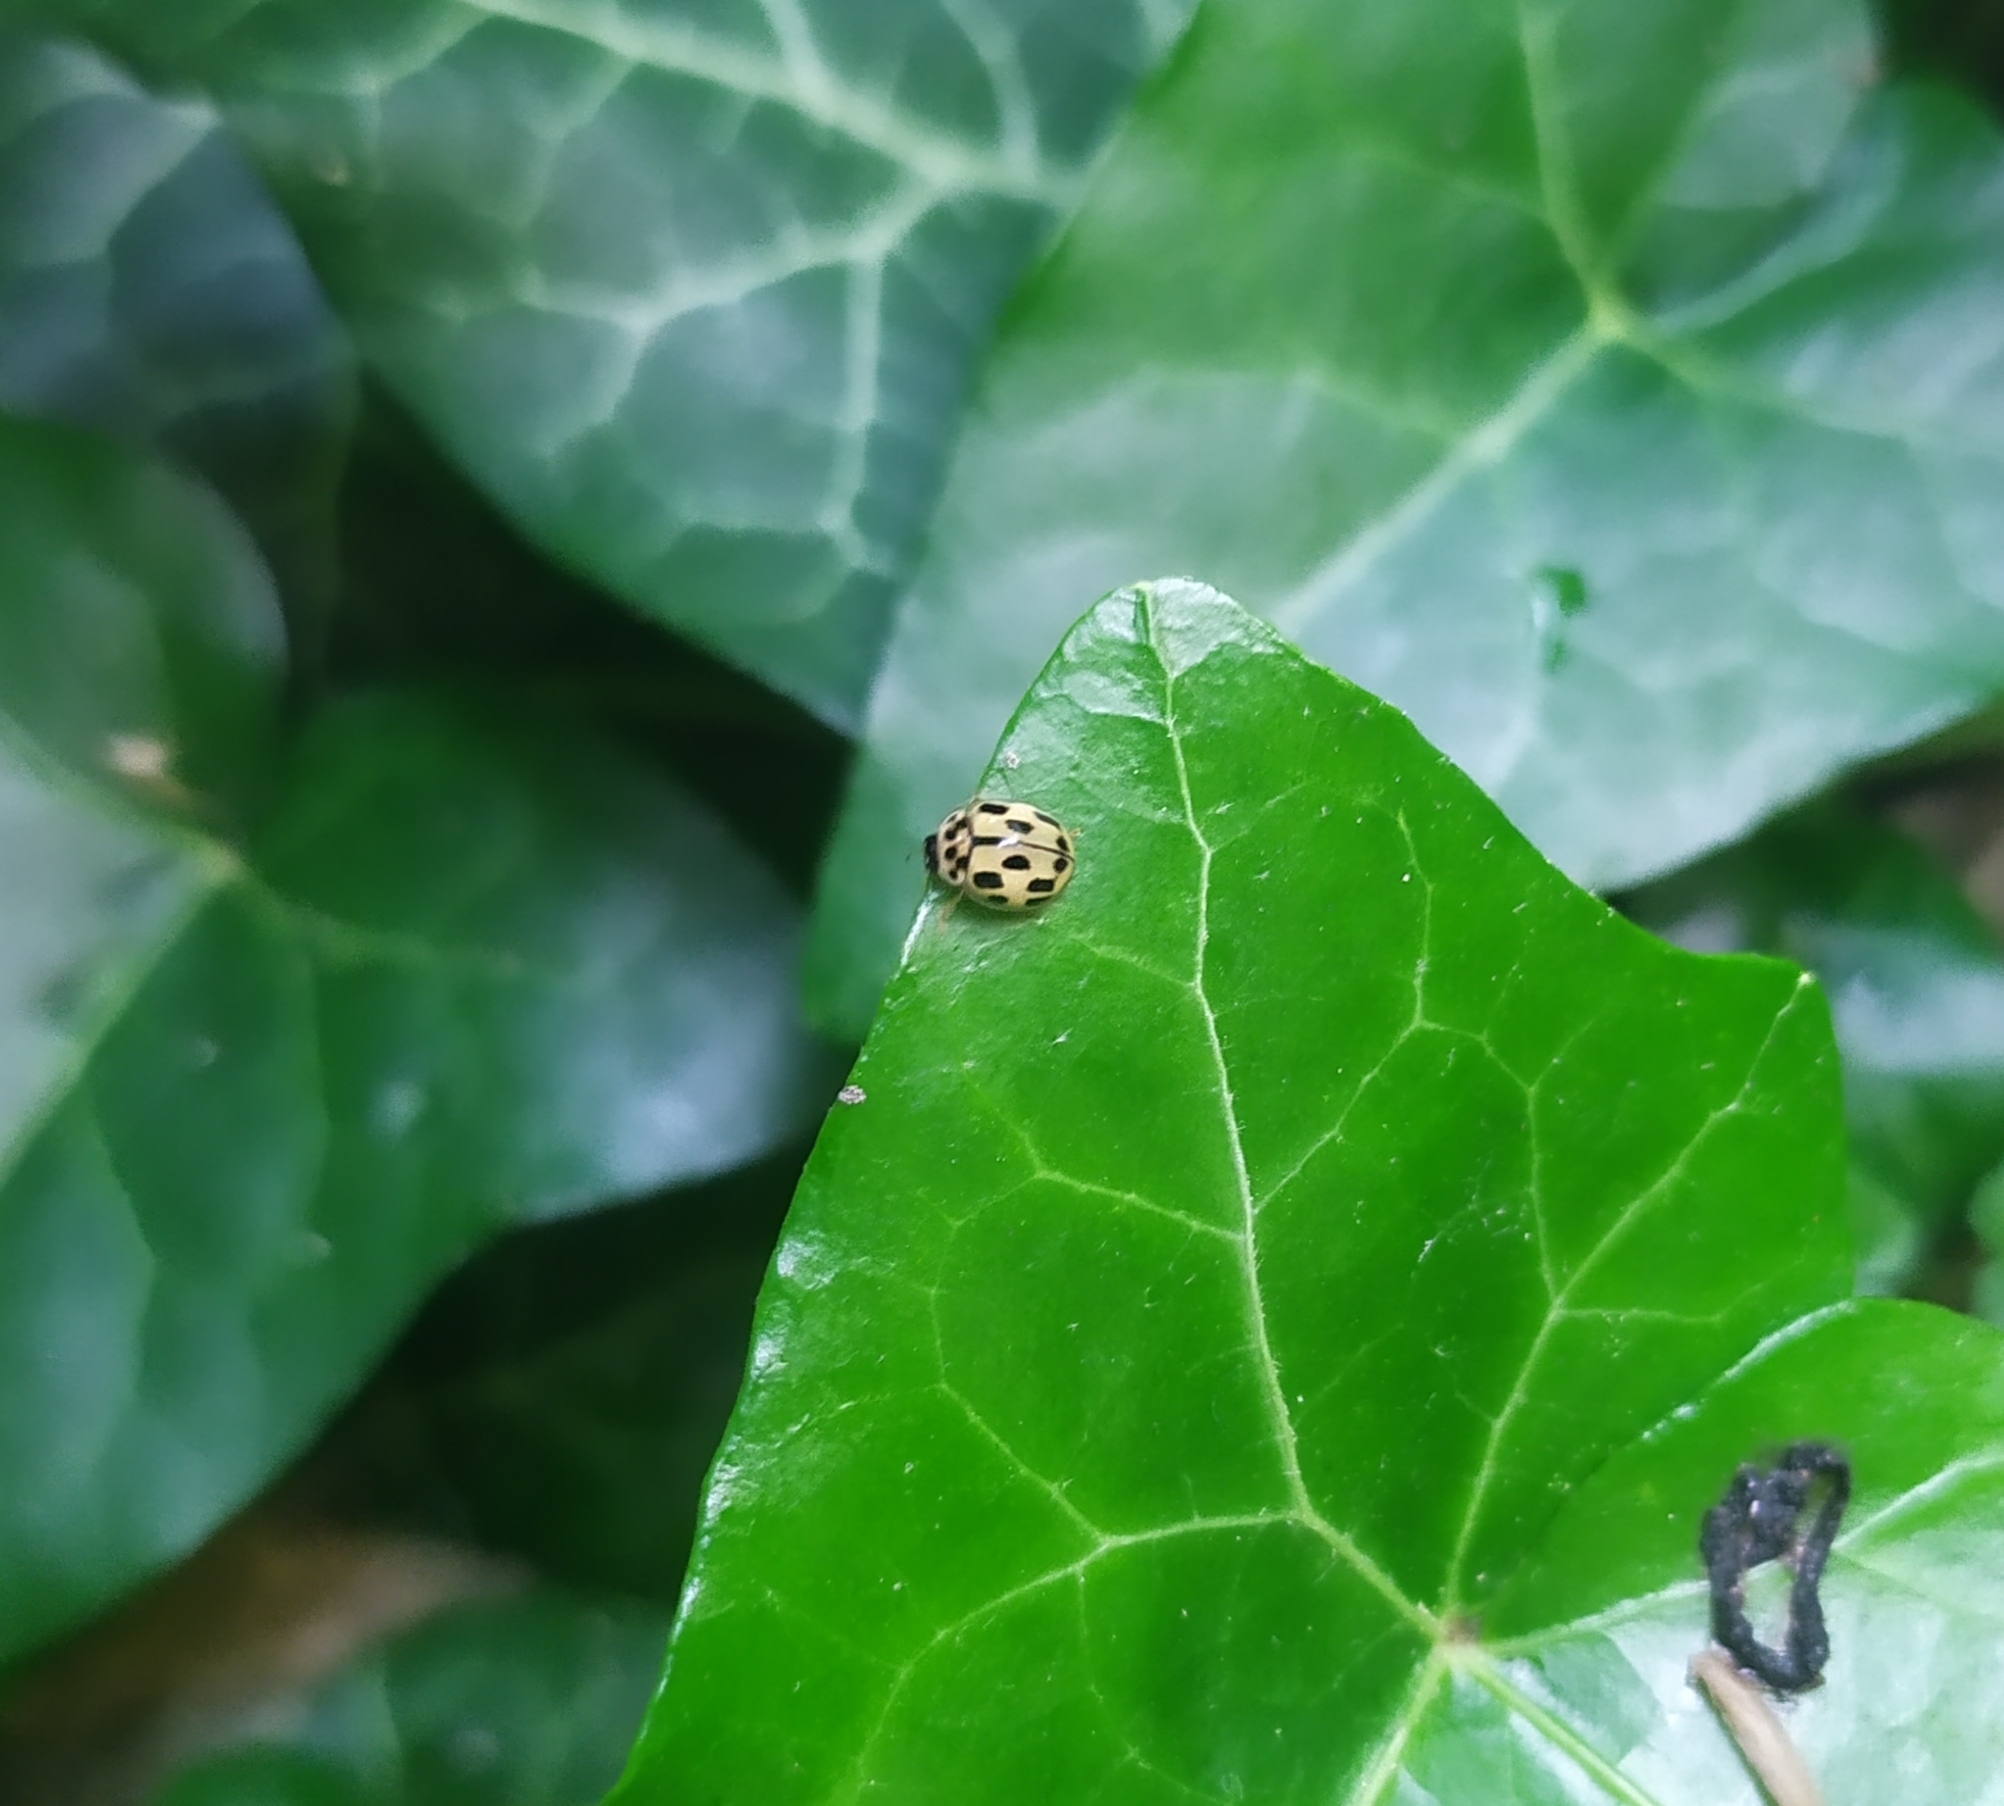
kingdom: Animalia
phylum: Arthropoda
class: Insecta
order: Coleoptera
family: Coccinellidae
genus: Propylaea
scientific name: Propylaea quatuordecimpunctata
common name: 14-spotted ladybird beetle
